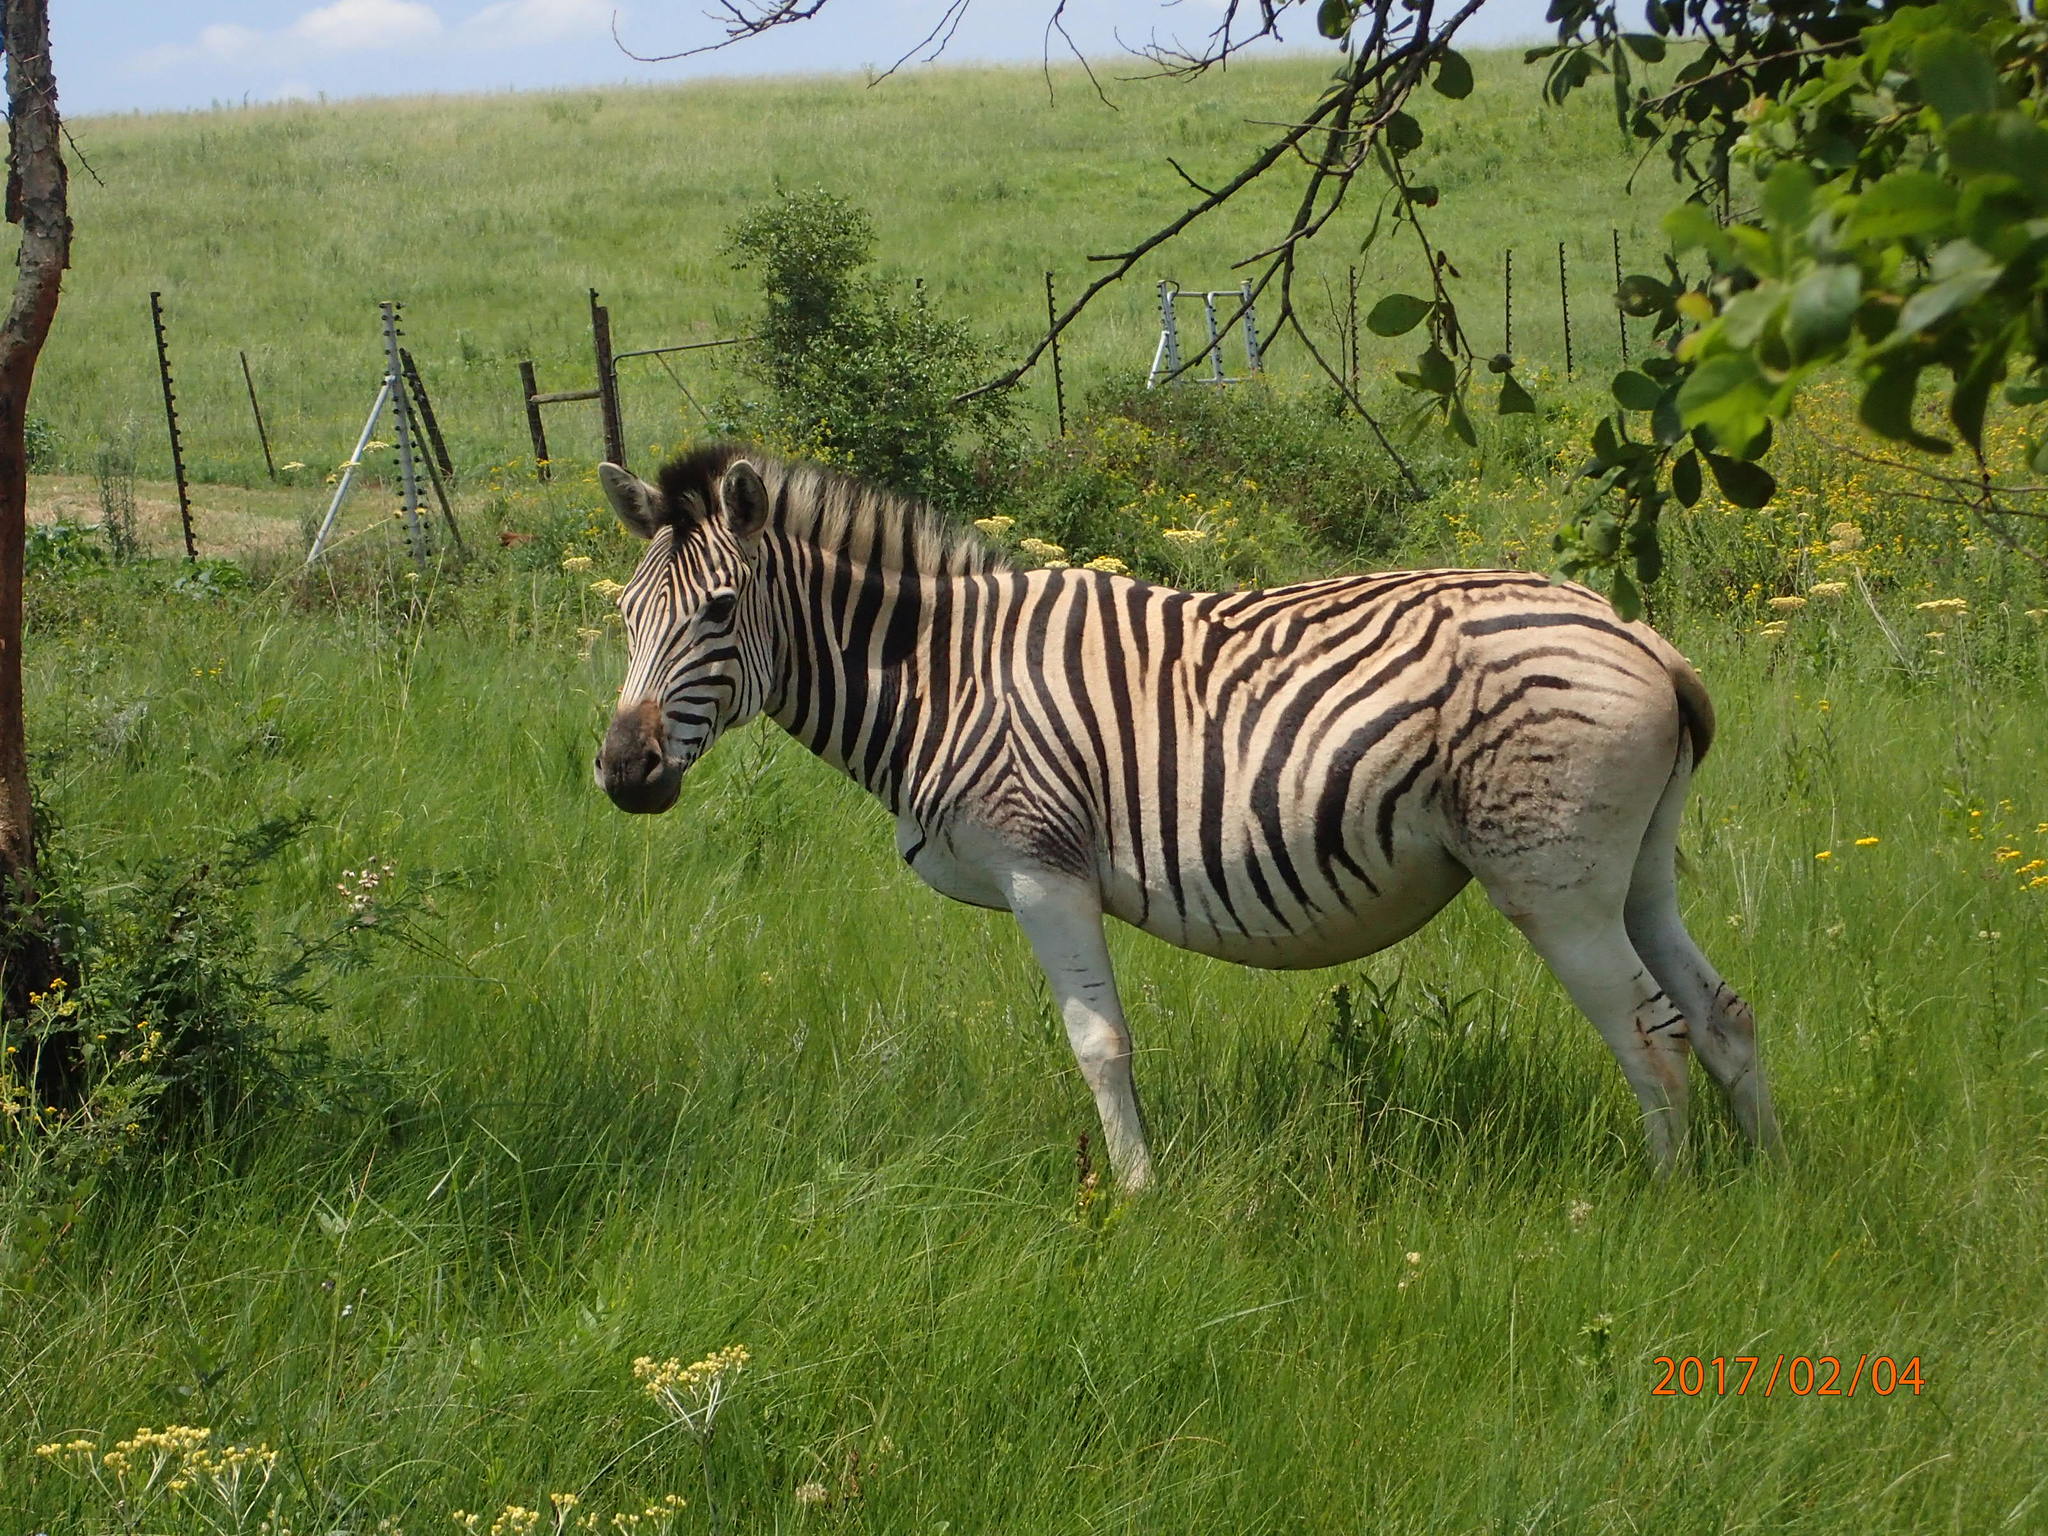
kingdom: Animalia
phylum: Chordata
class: Mammalia
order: Perissodactyla
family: Equidae
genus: Equus
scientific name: Equus quagga
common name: Plains zebra
